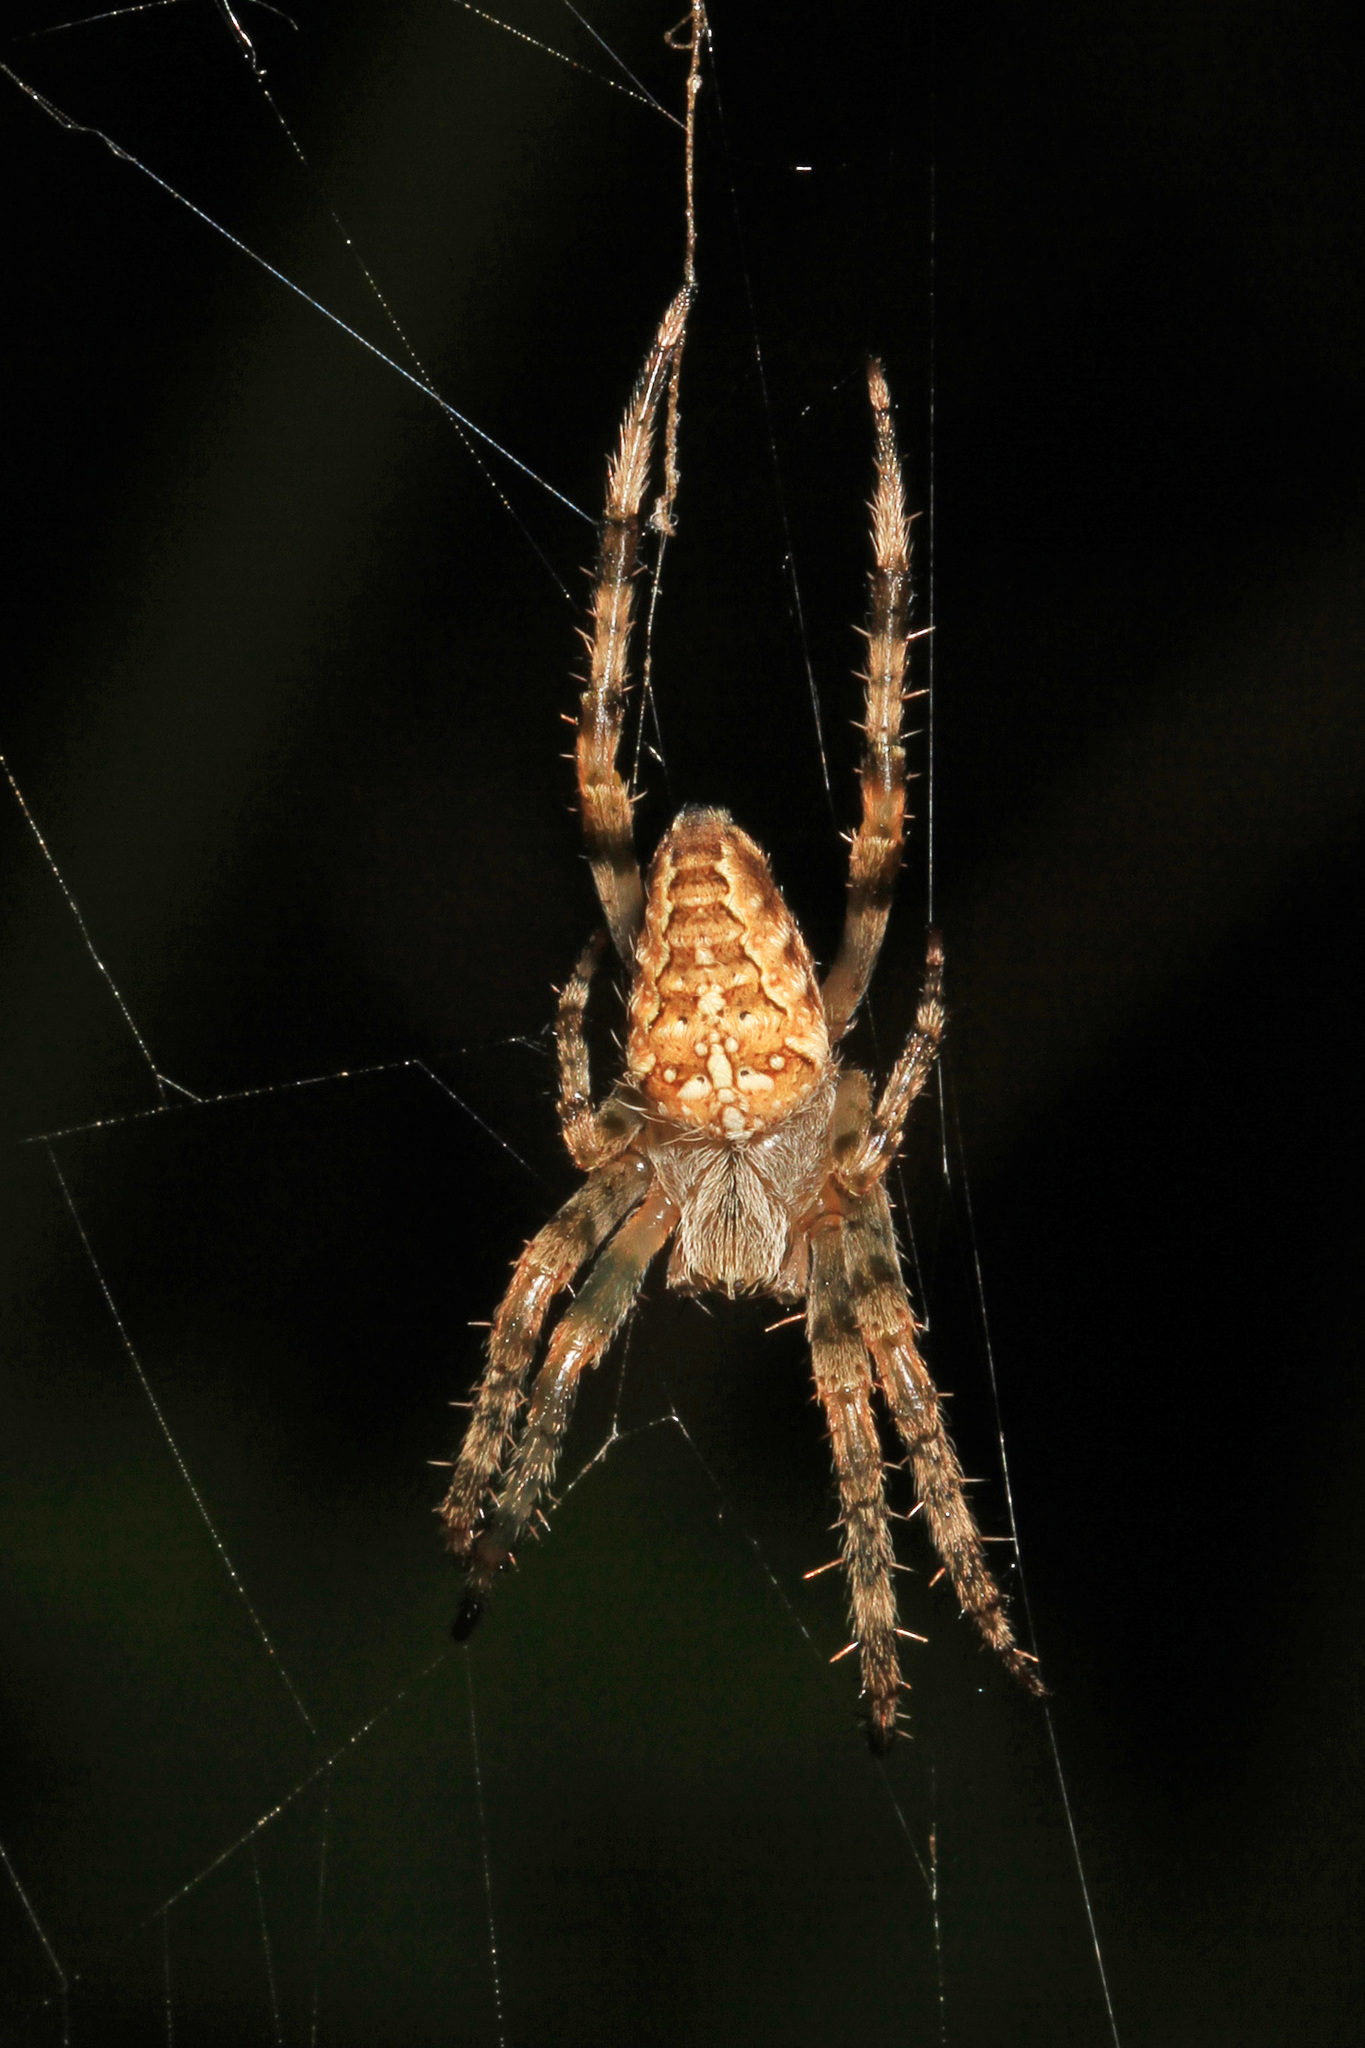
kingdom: Animalia
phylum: Arthropoda
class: Arachnida
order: Araneae
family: Araneidae
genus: Araneus
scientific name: Araneus diadematus
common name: Cross orbweaver
